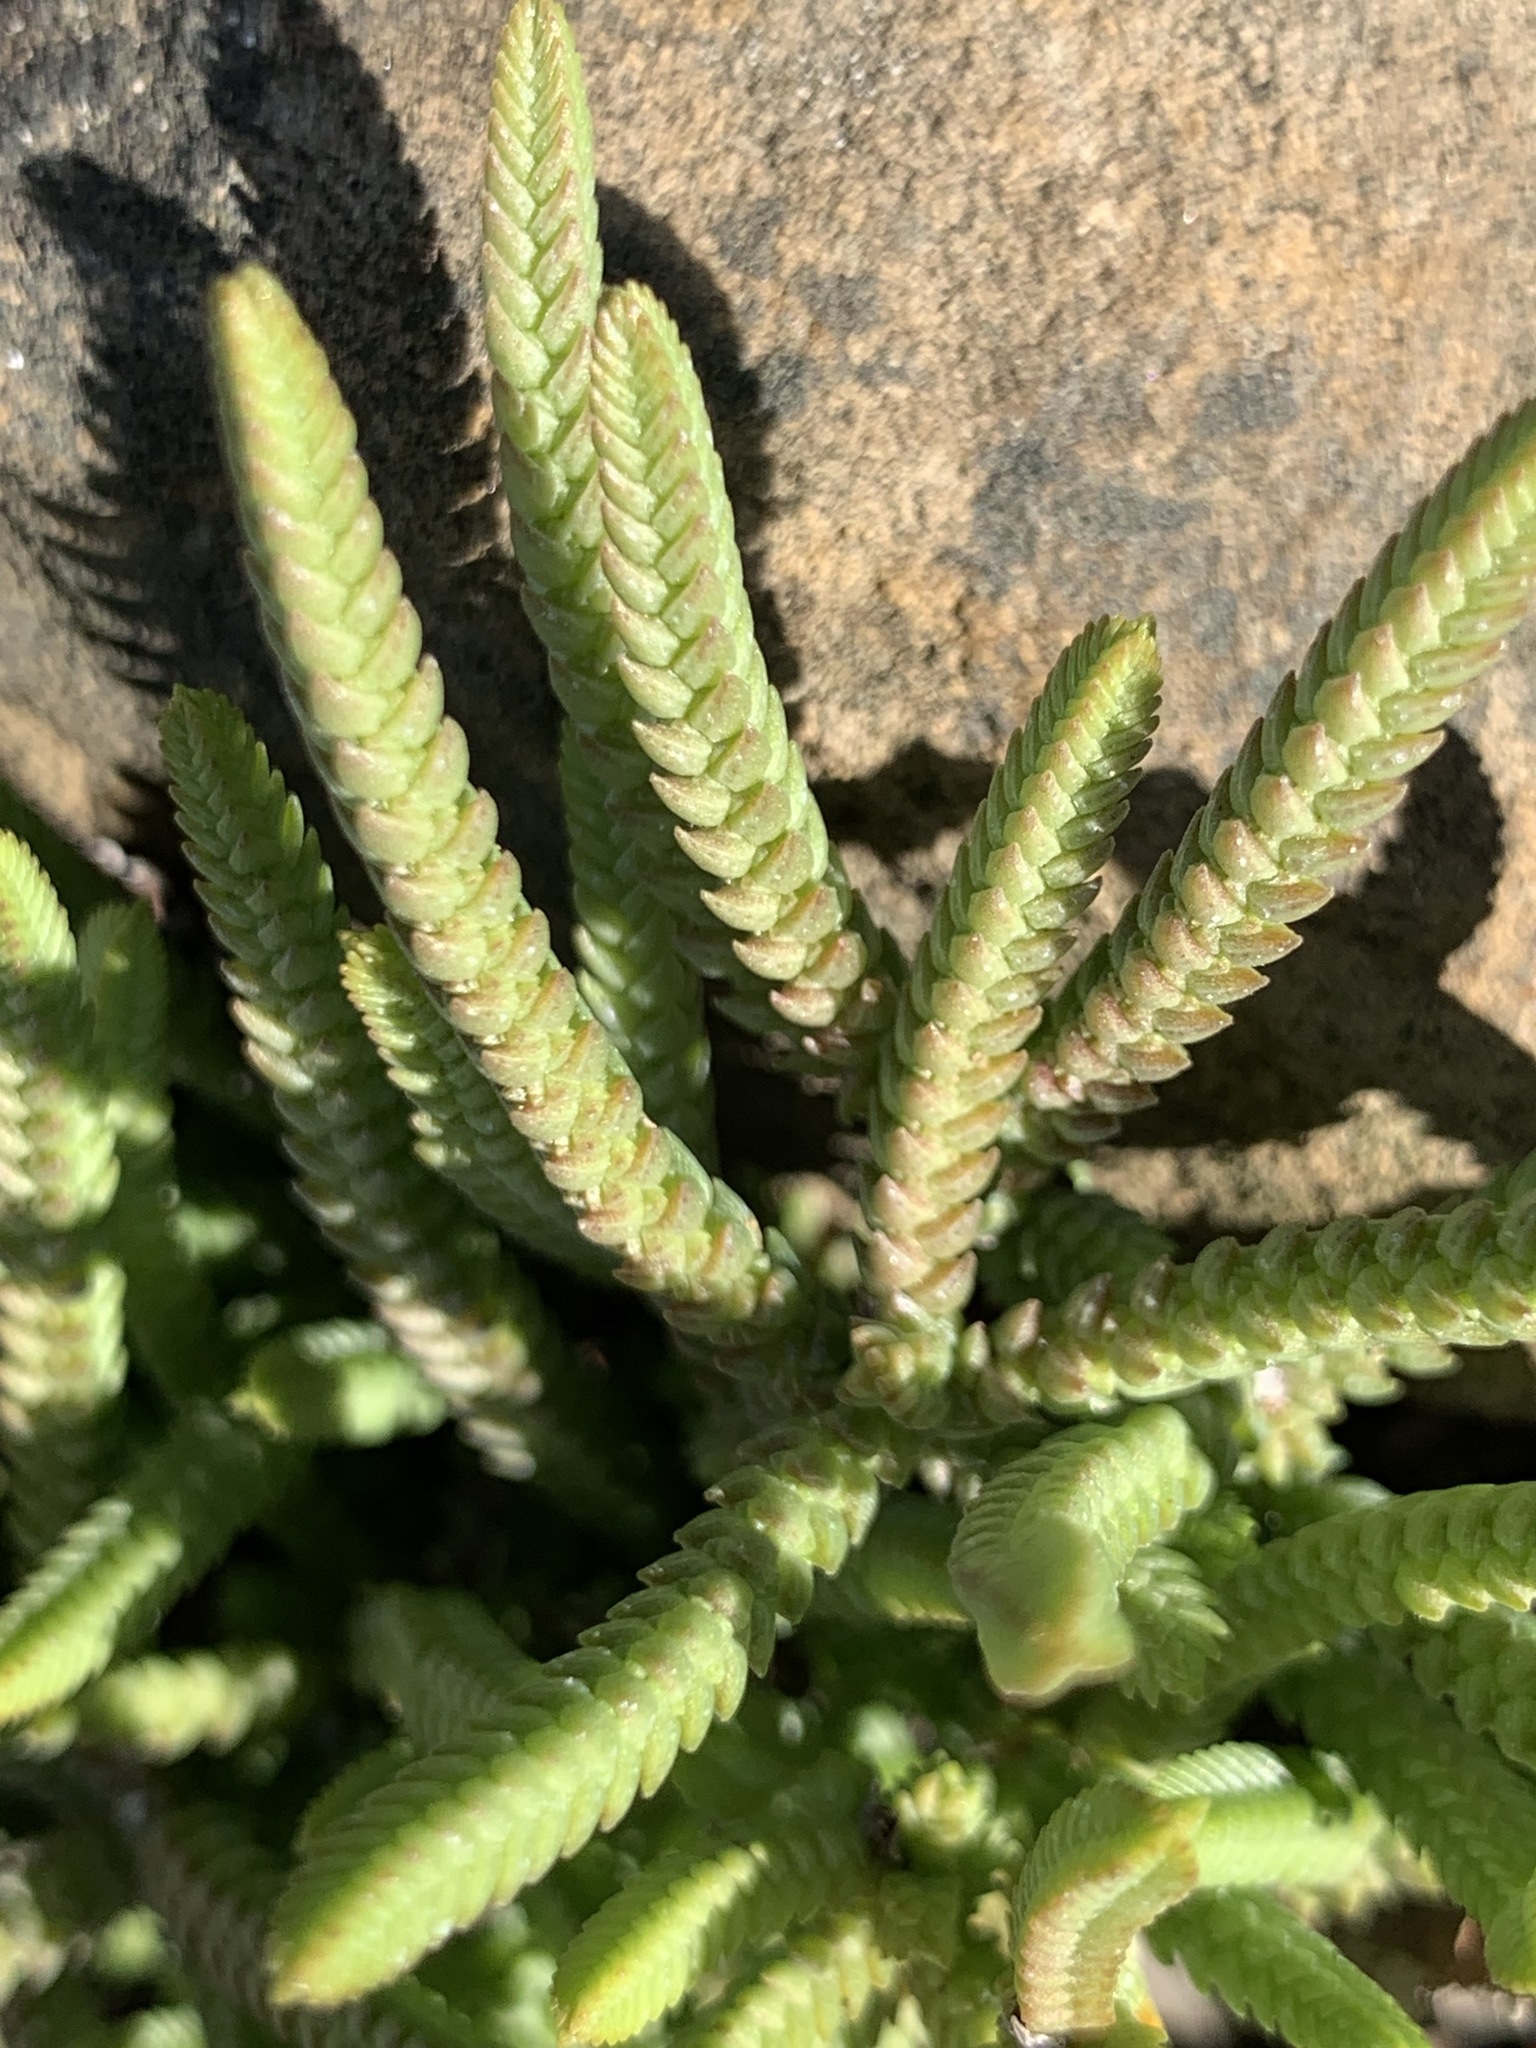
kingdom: Plantae
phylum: Tracheophyta
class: Magnoliopsida
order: Saxifragales
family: Crassulaceae
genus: Crassula
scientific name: Crassula muscosa
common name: Toy-cypress
